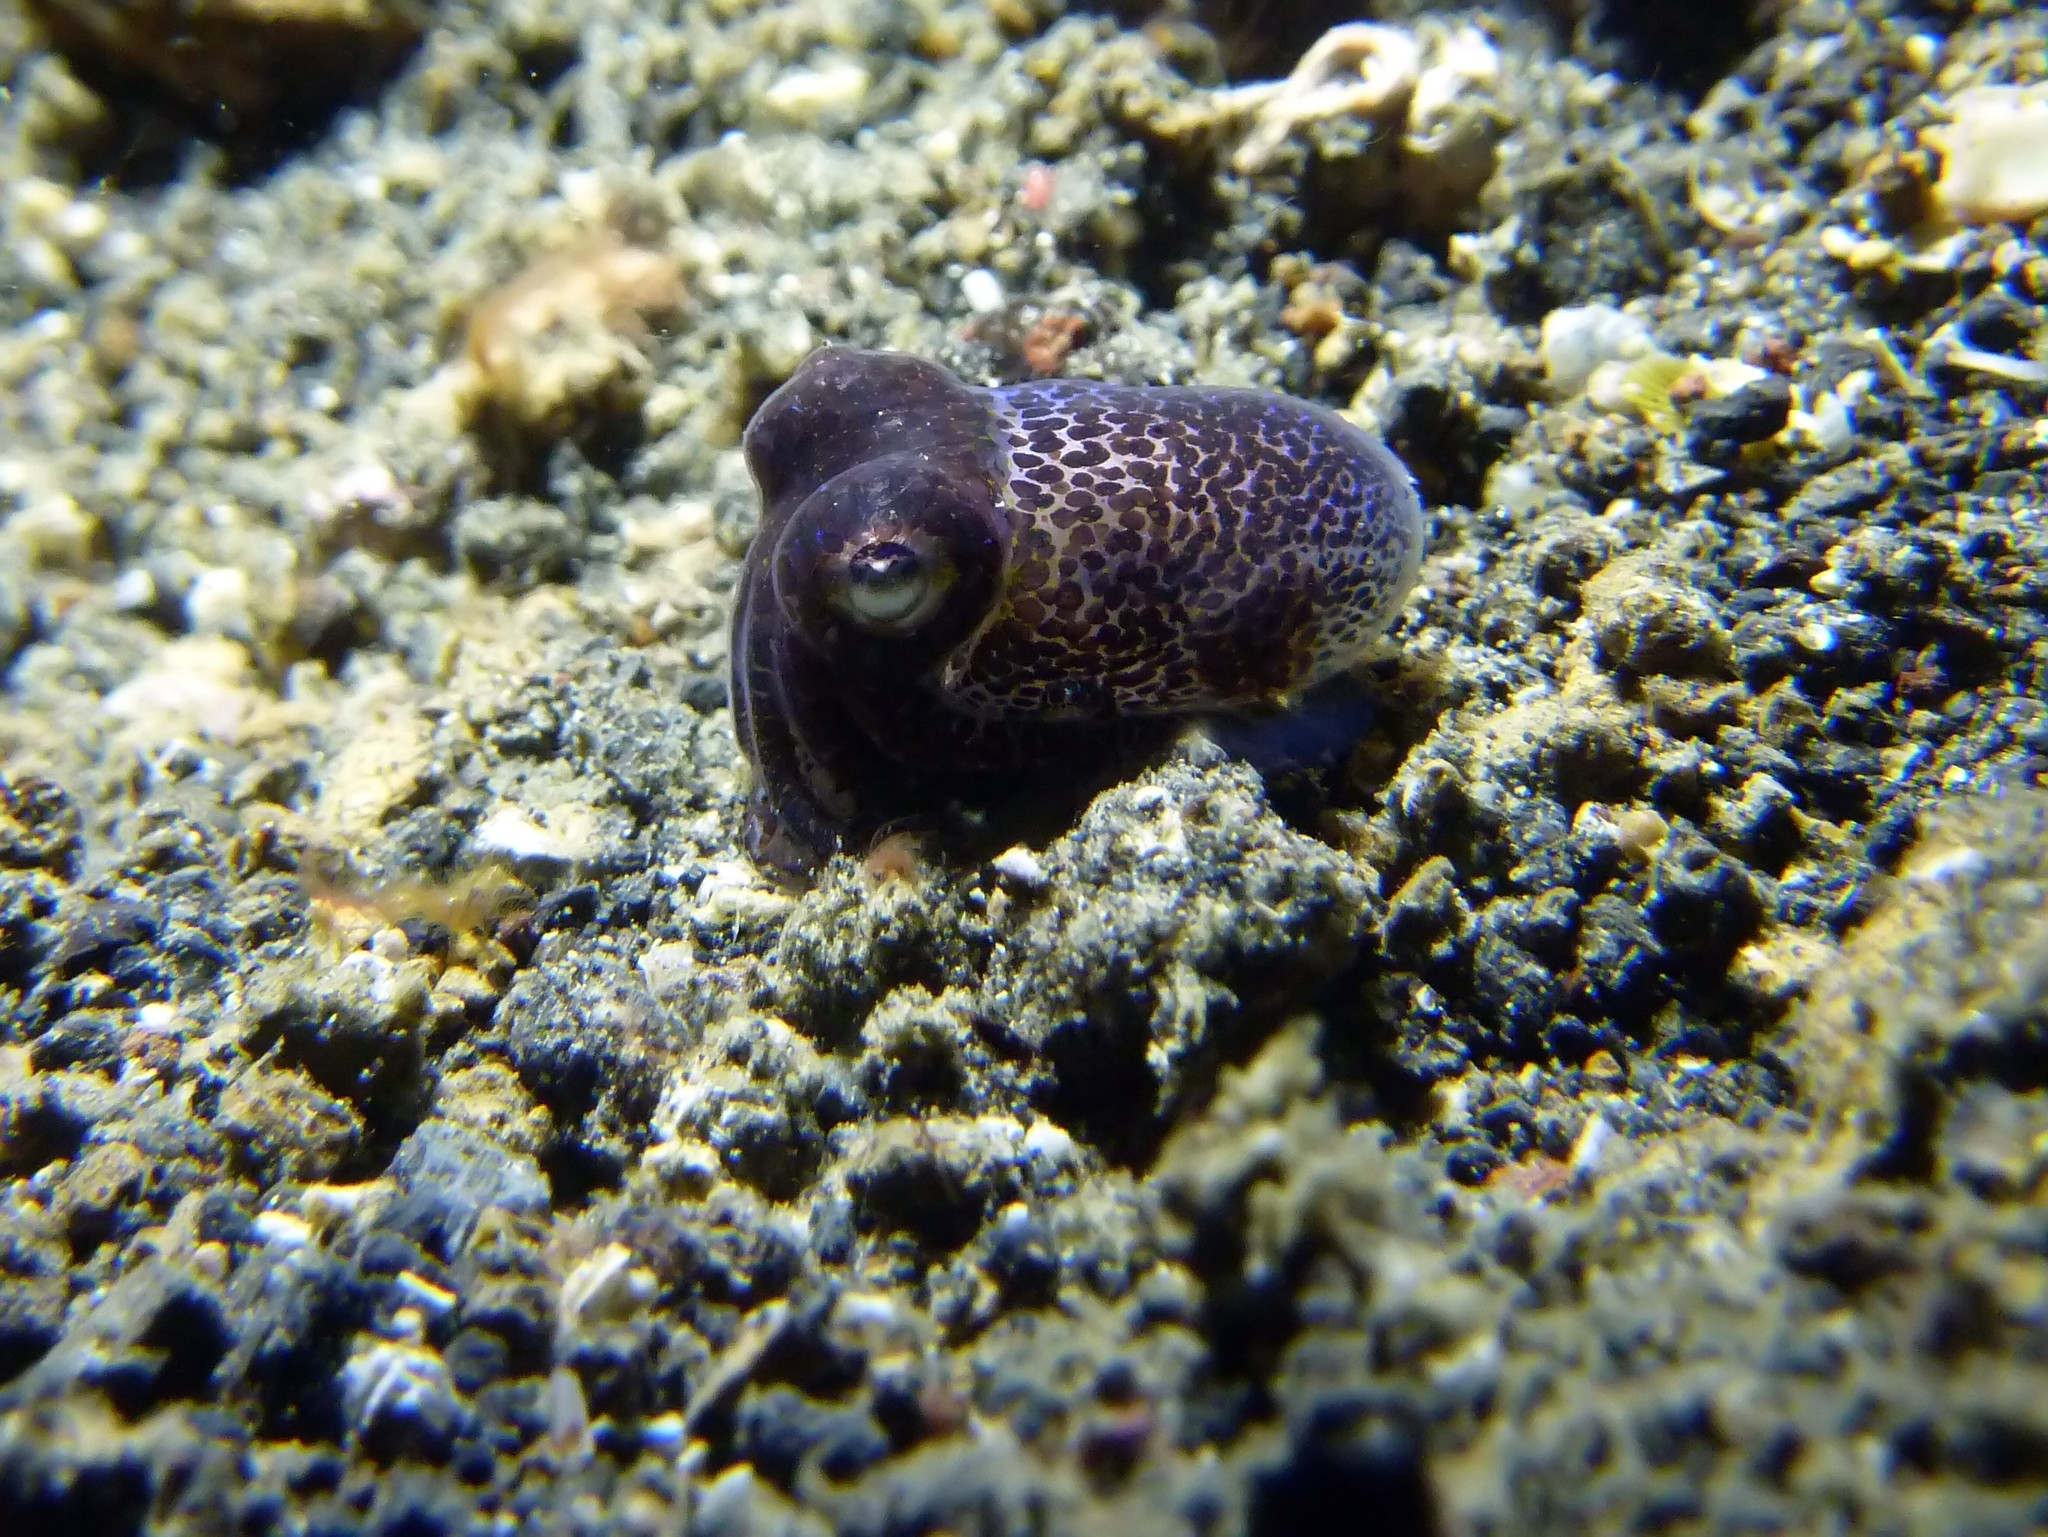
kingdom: Animalia
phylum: Mollusca
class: Cephalopoda
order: Sepiida
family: Sepiolidae
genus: Euprymna
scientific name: Euprymna berryi
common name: Humming-bird bobtail squid
